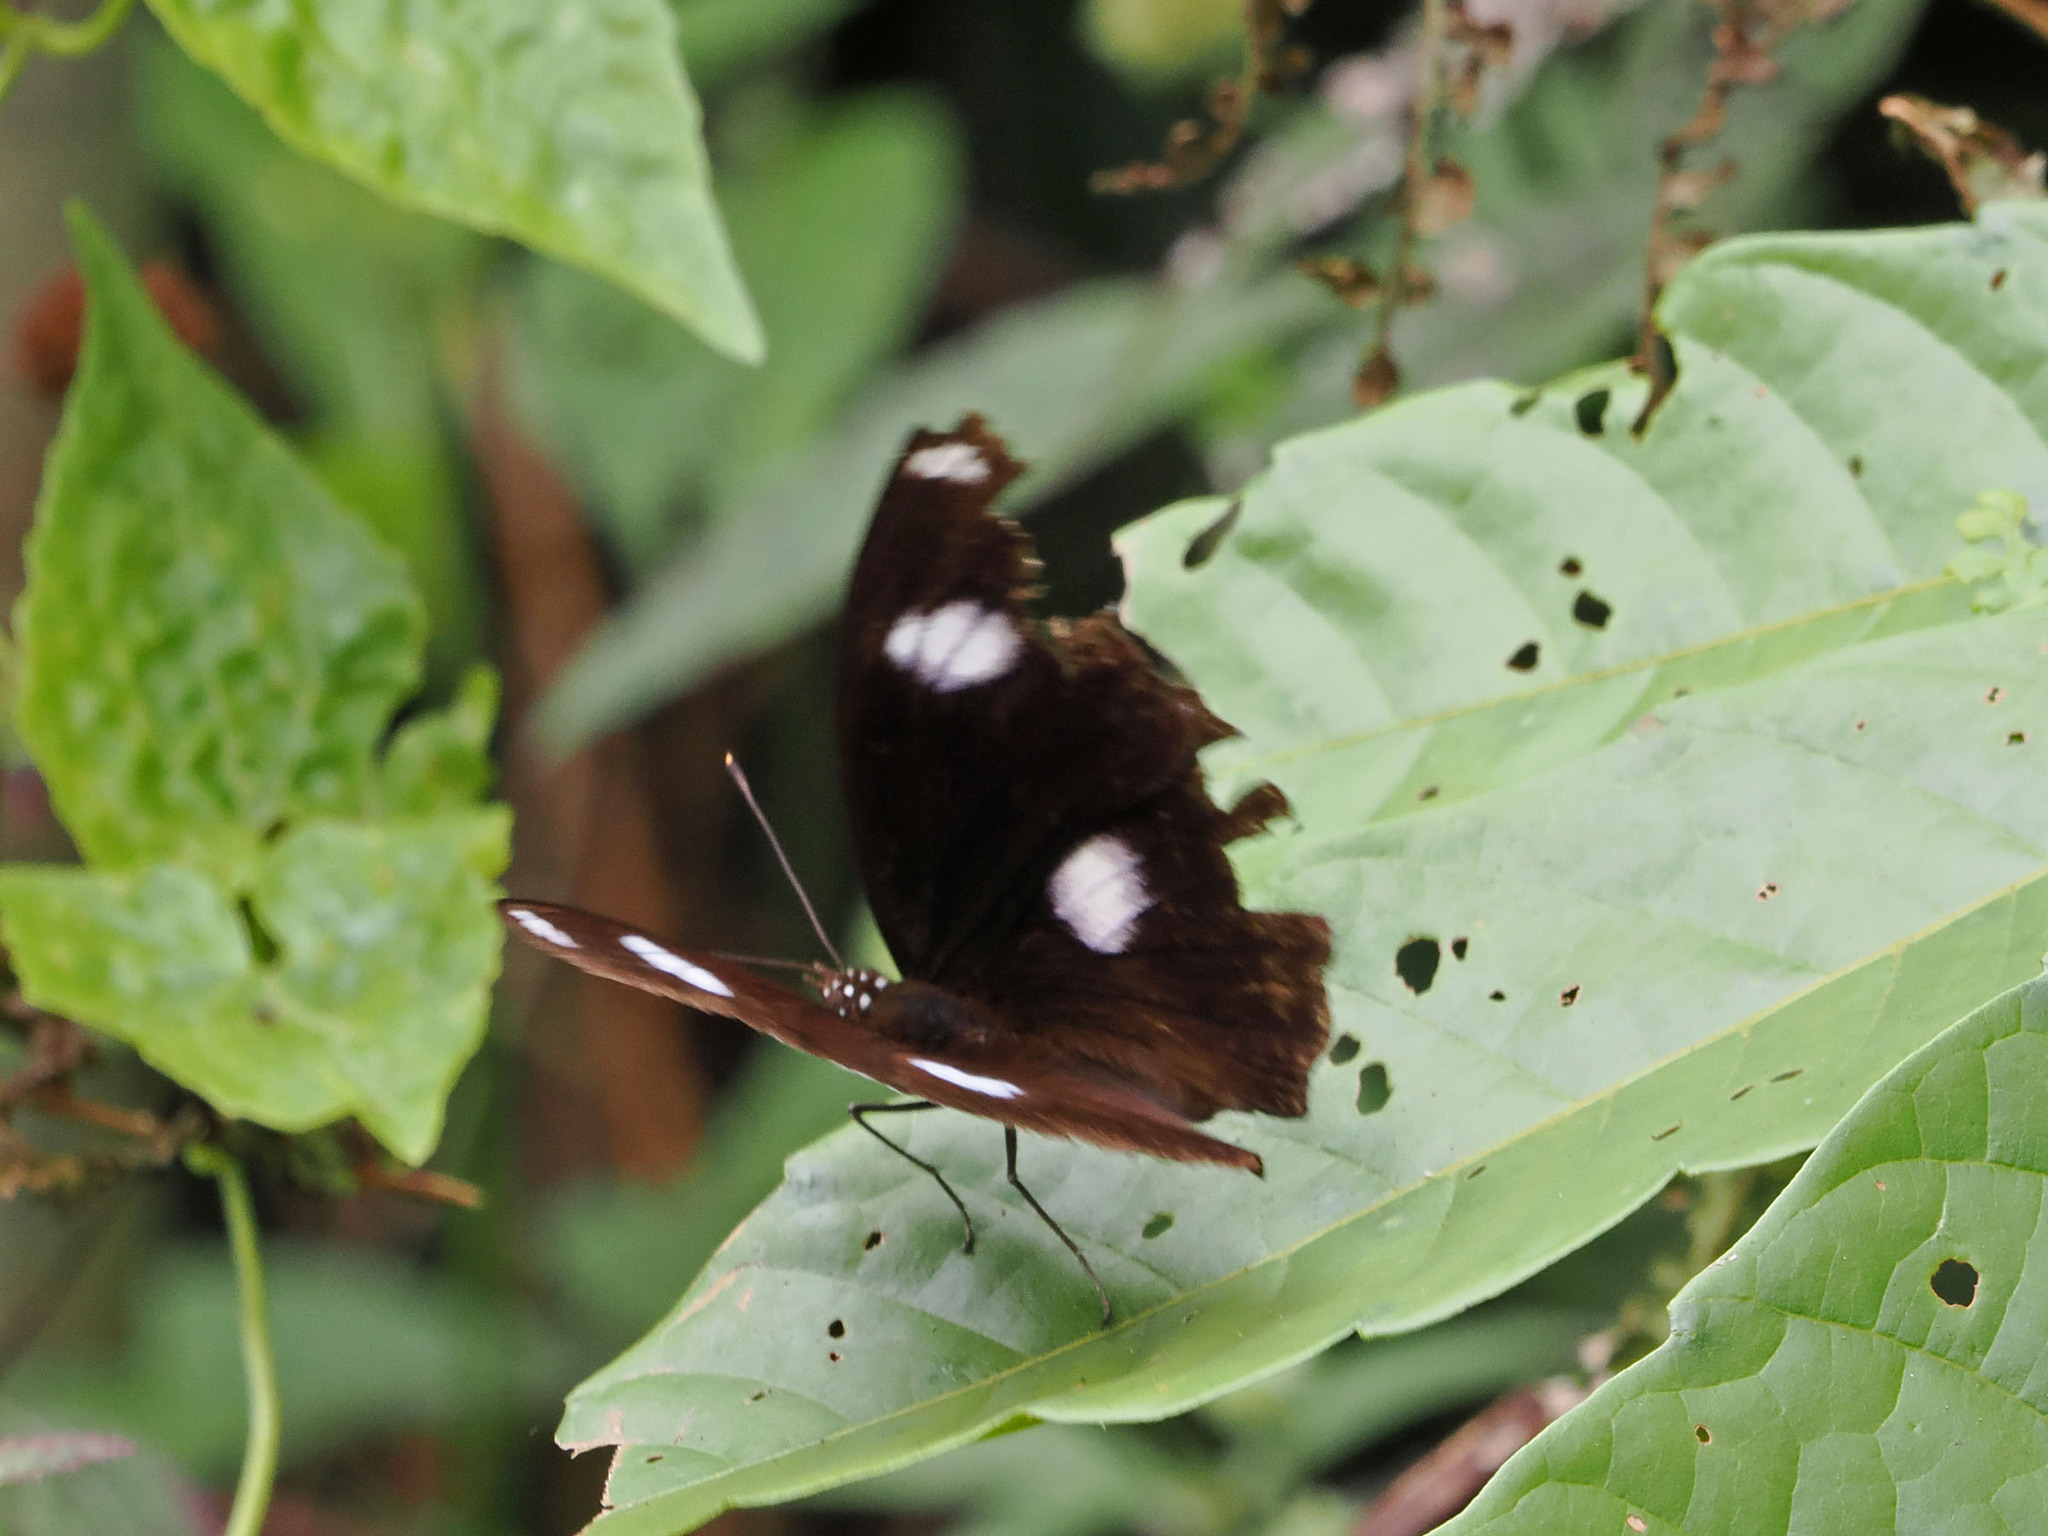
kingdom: Animalia
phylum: Arthropoda
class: Insecta
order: Lepidoptera
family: Nymphalidae
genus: Hypolimnas
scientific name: Hypolimnas bolina
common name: Great eggfly
